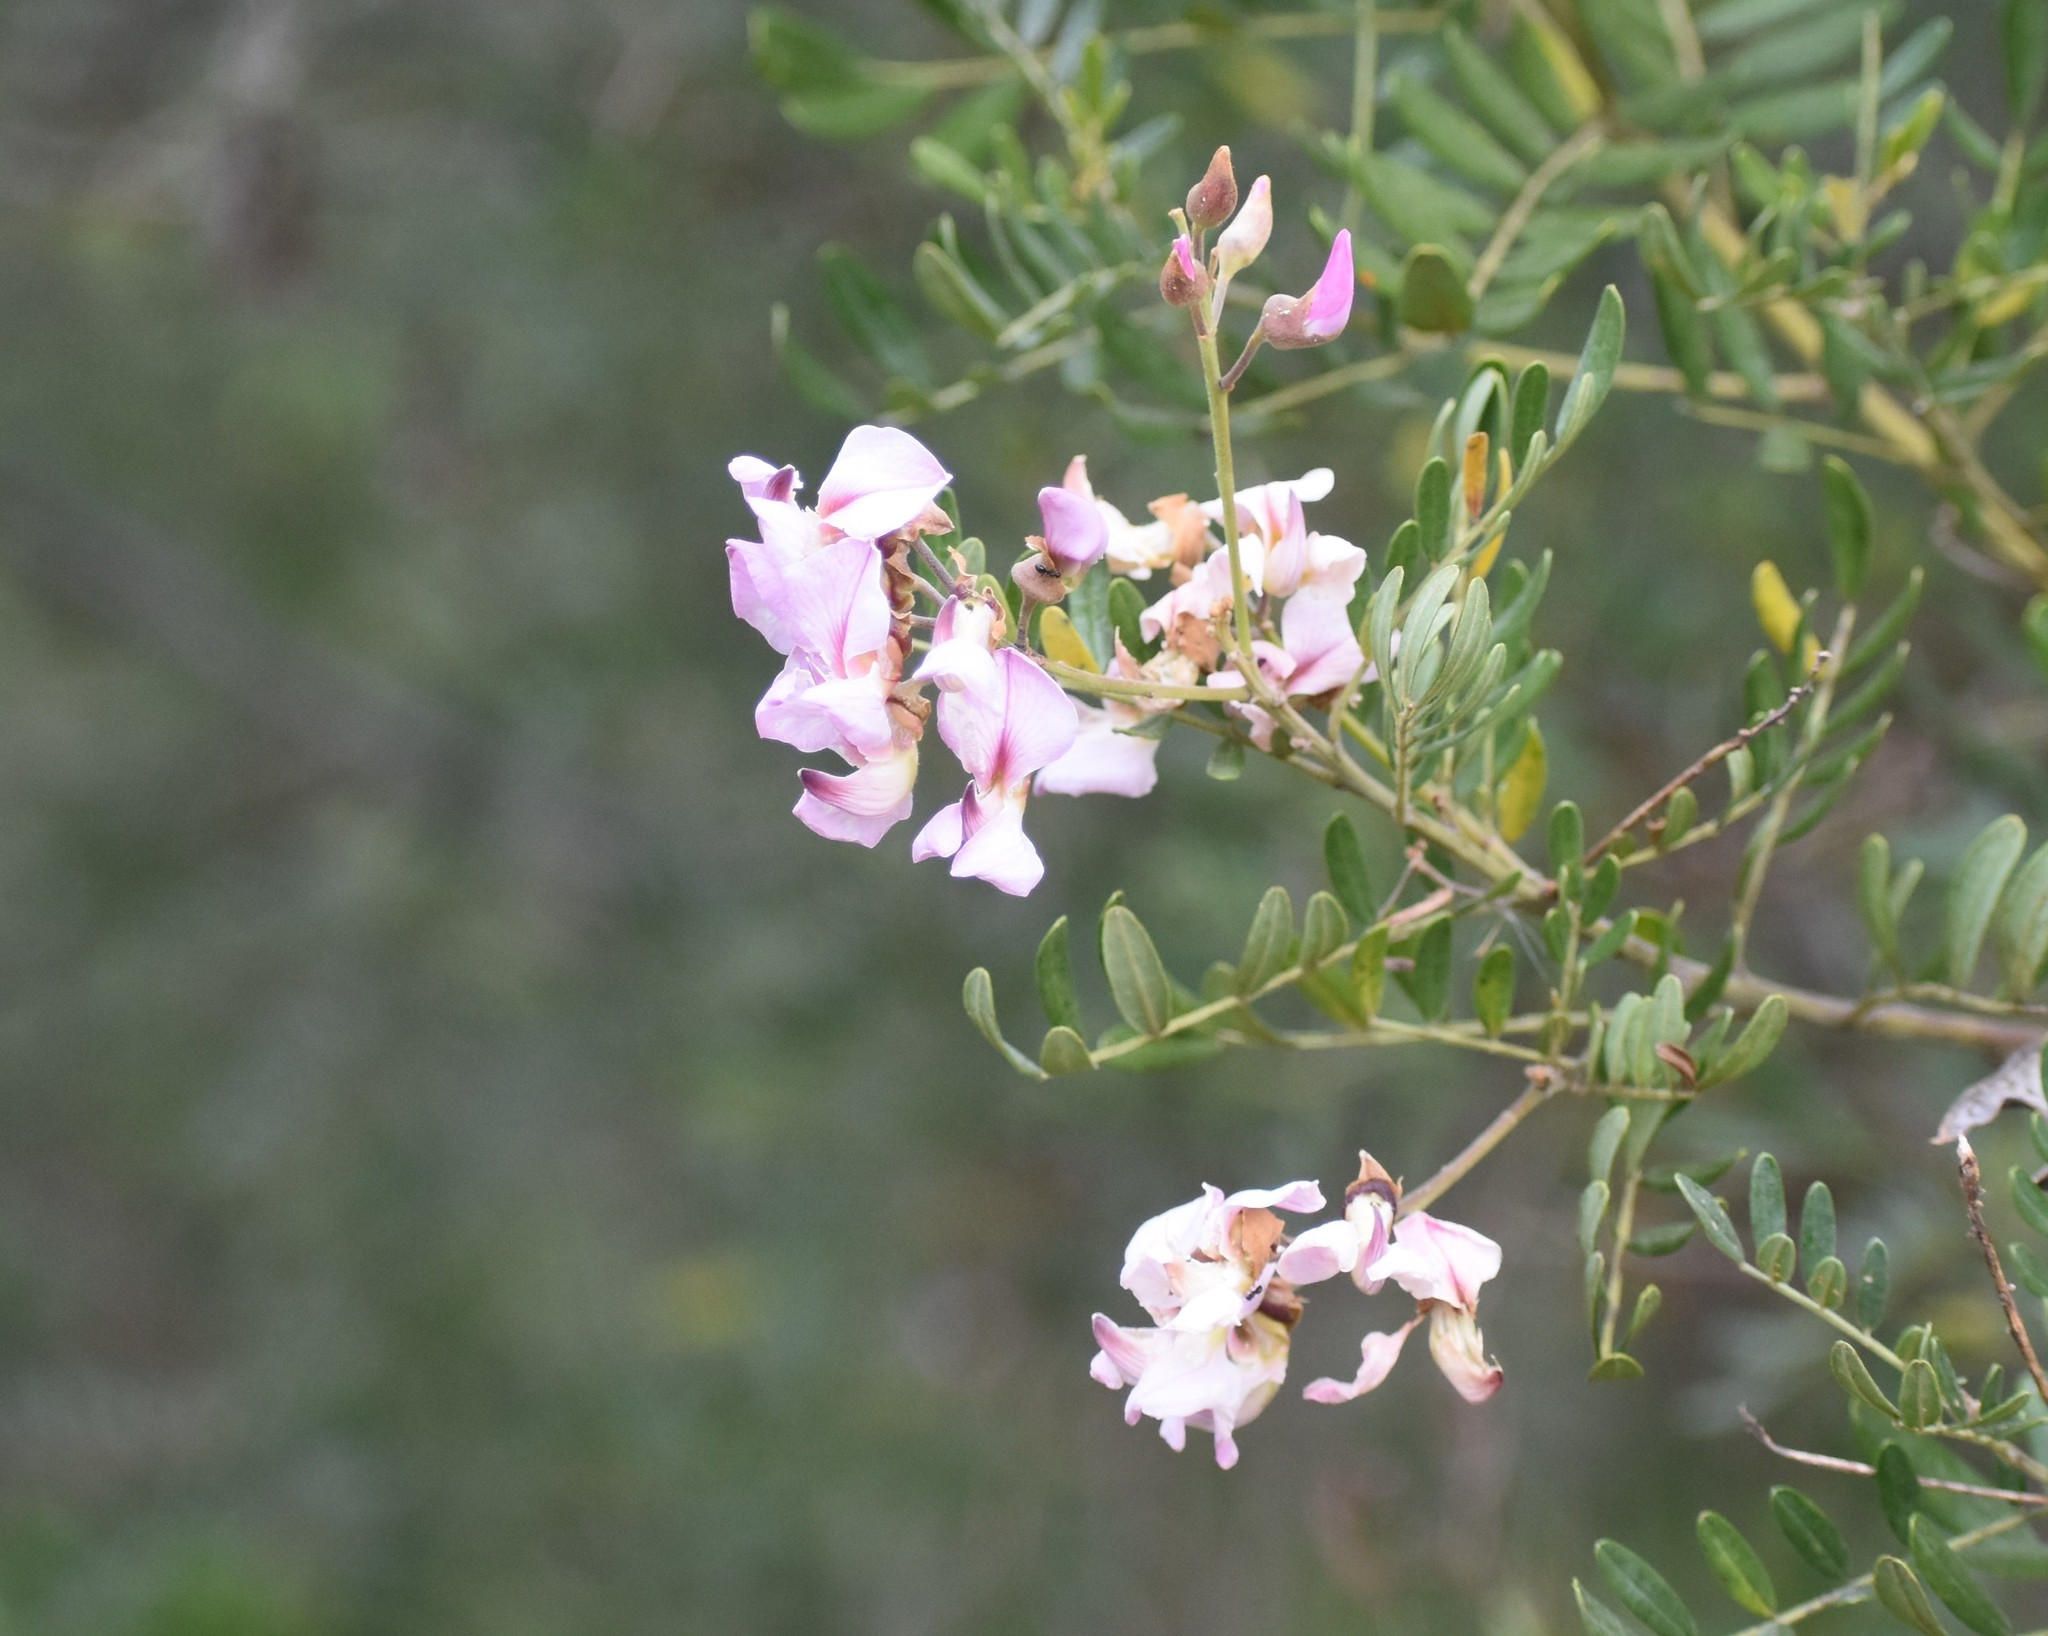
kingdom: Plantae
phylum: Tracheophyta
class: Magnoliopsida
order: Fabales
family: Fabaceae
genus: Virgilia
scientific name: Virgilia divaricata
